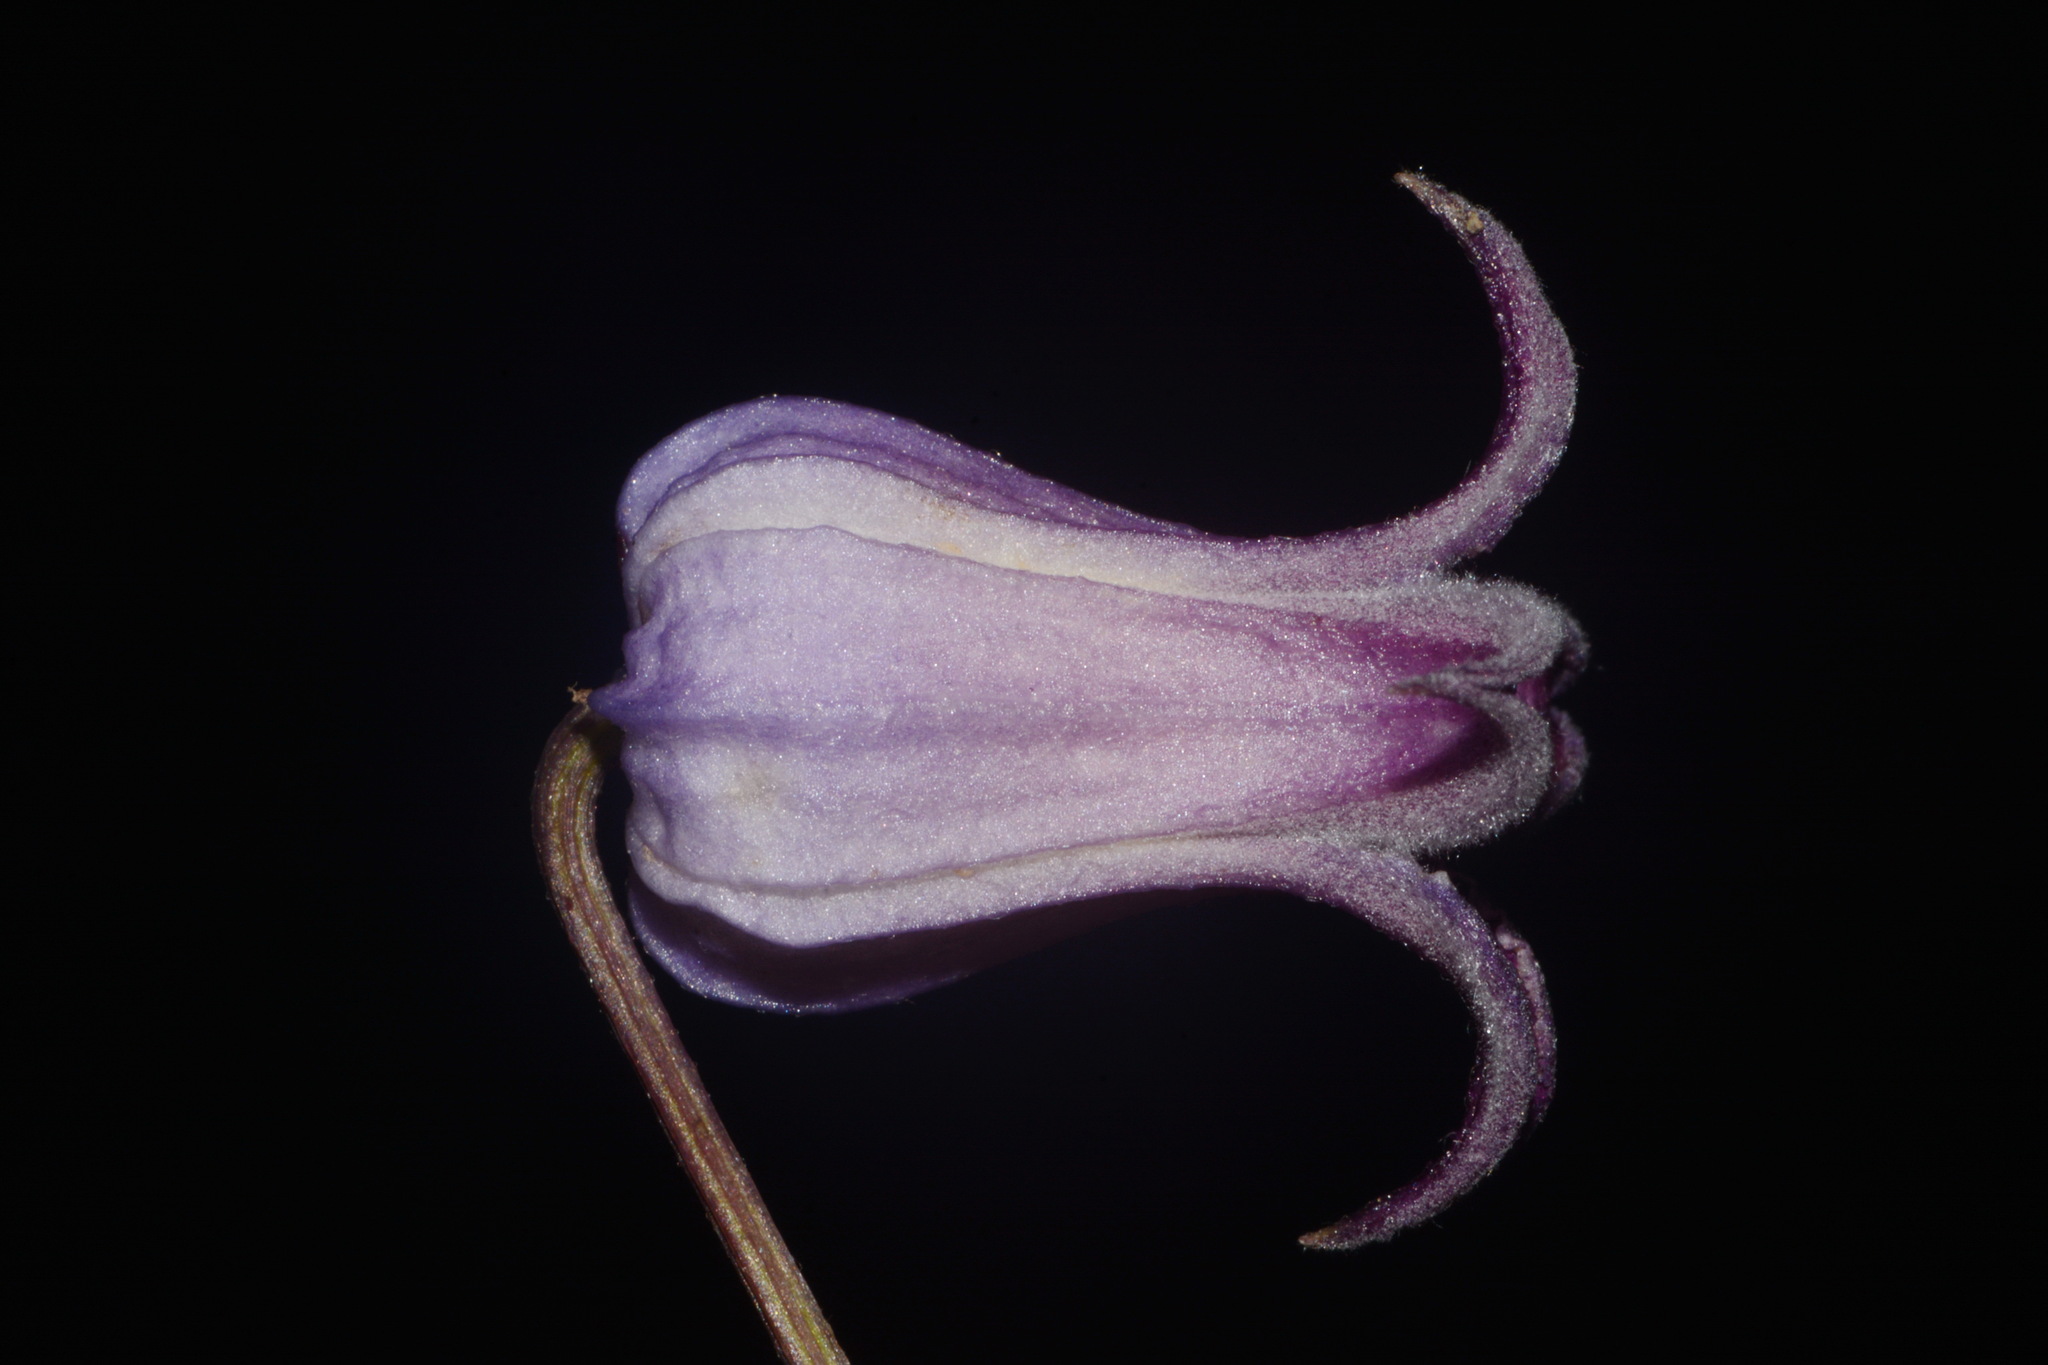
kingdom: Plantae
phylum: Tracheophyta
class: Magnoliopsida
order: Ranunculales
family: Ranunculaceae
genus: Clematis
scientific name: Clematis socialis
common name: Alabama leather-flower
